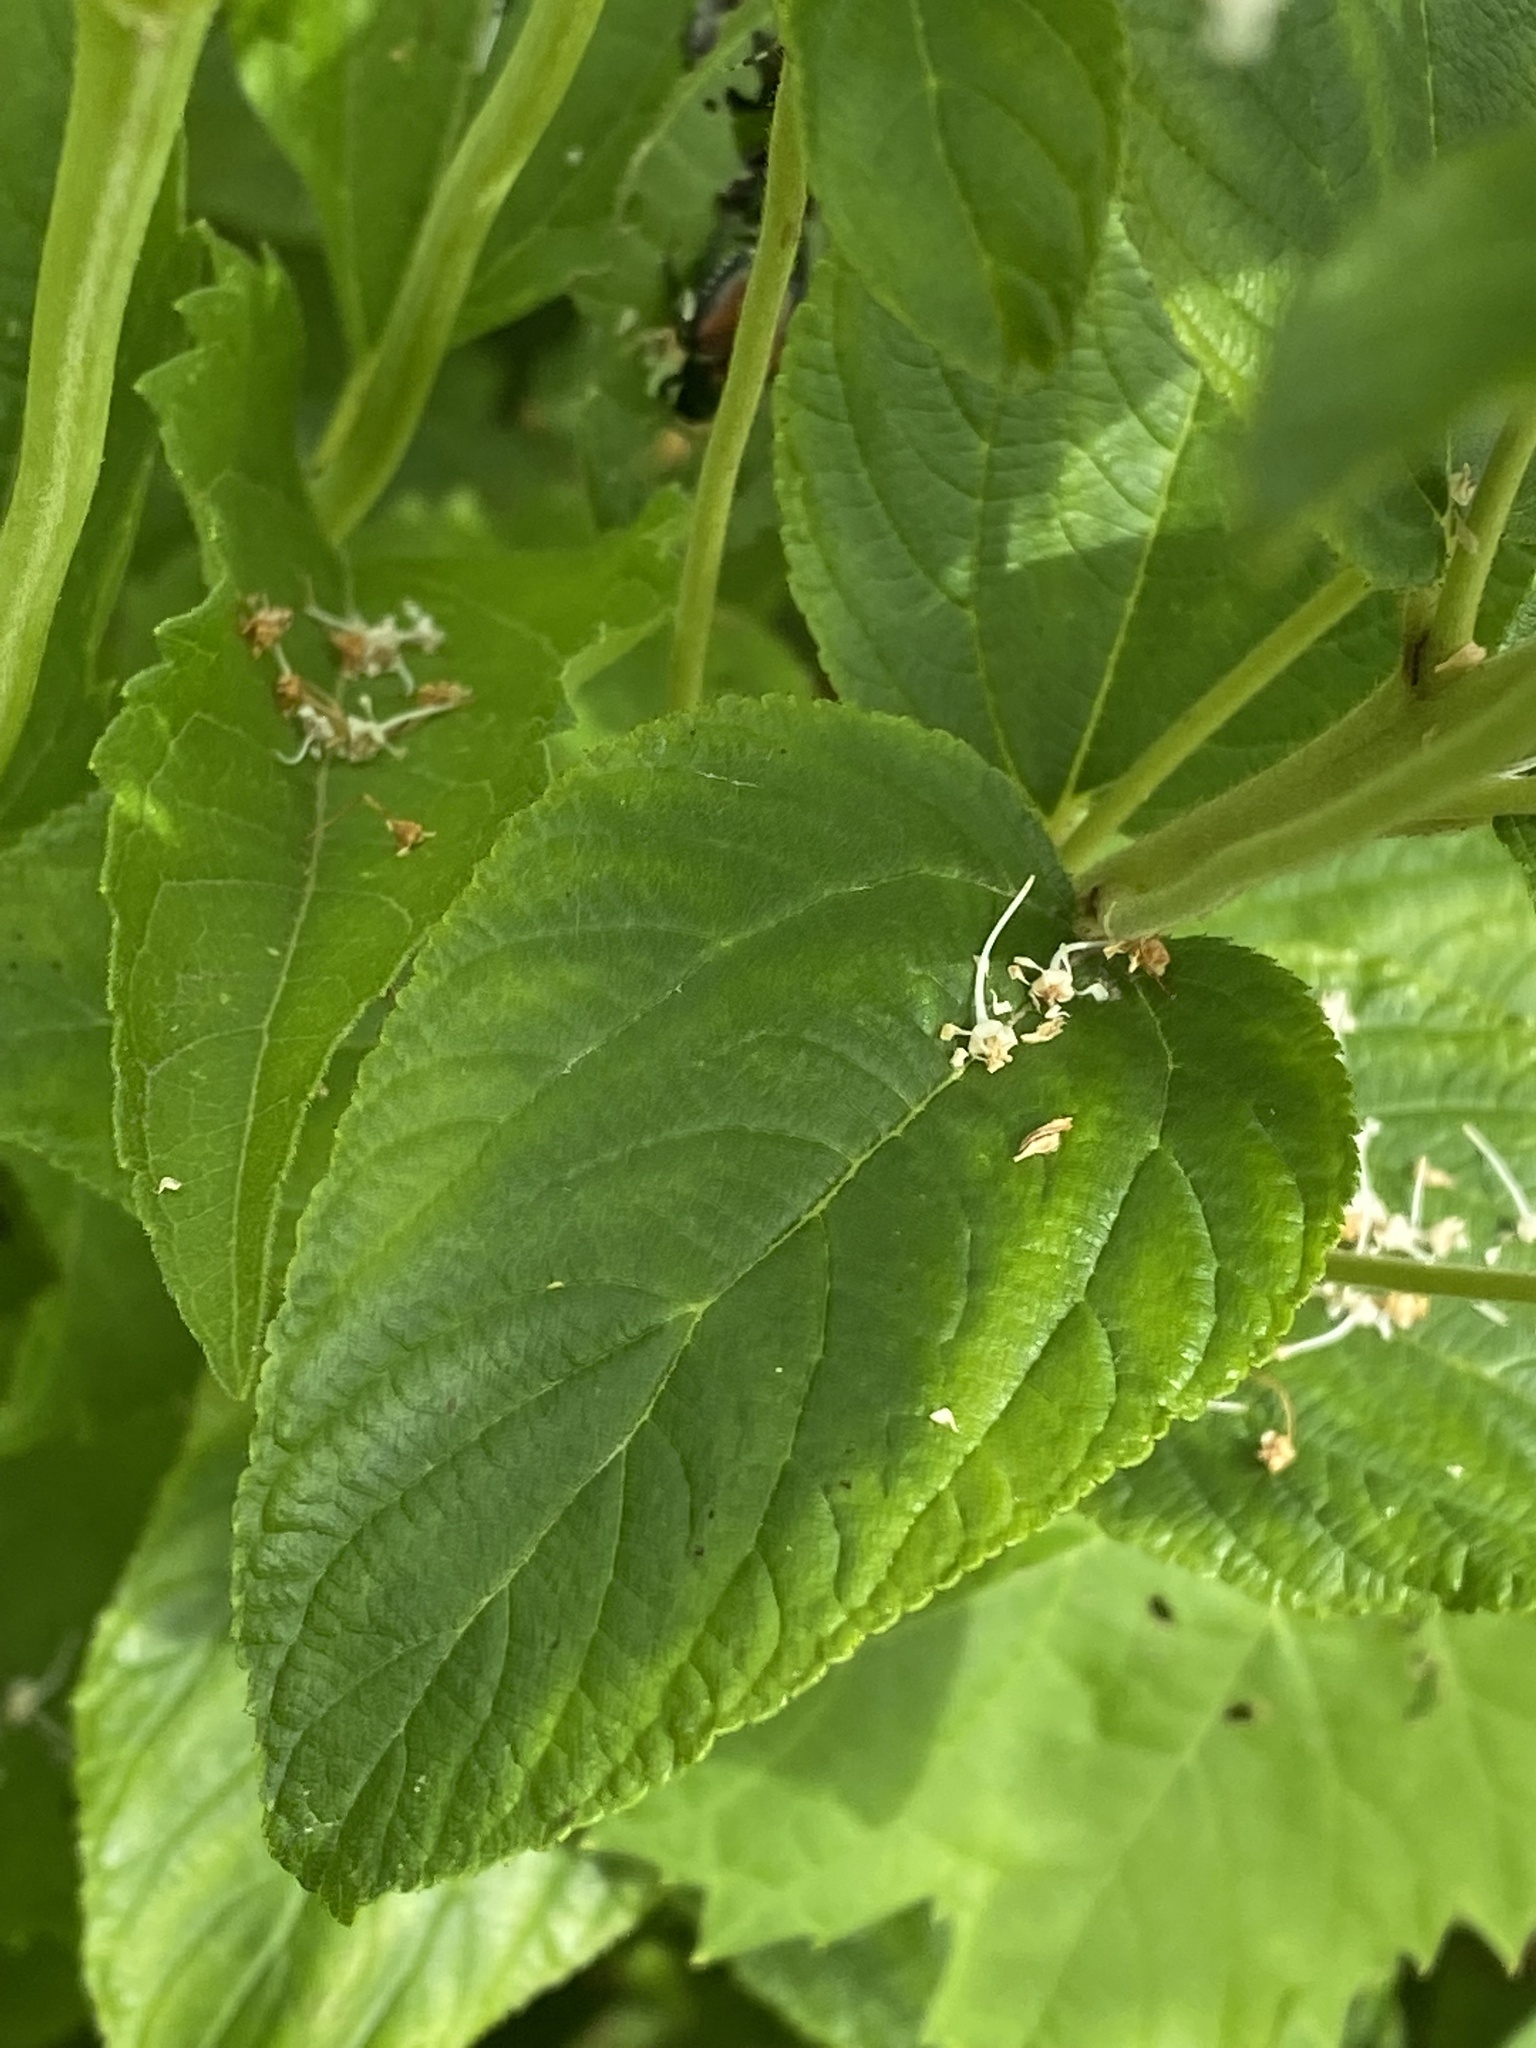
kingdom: Plantae
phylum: Tracheophyta
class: Magnoliopsida
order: Rosales
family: Rhamnaceae
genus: Ceanothus
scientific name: Ceanothus americanus
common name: Redroot
